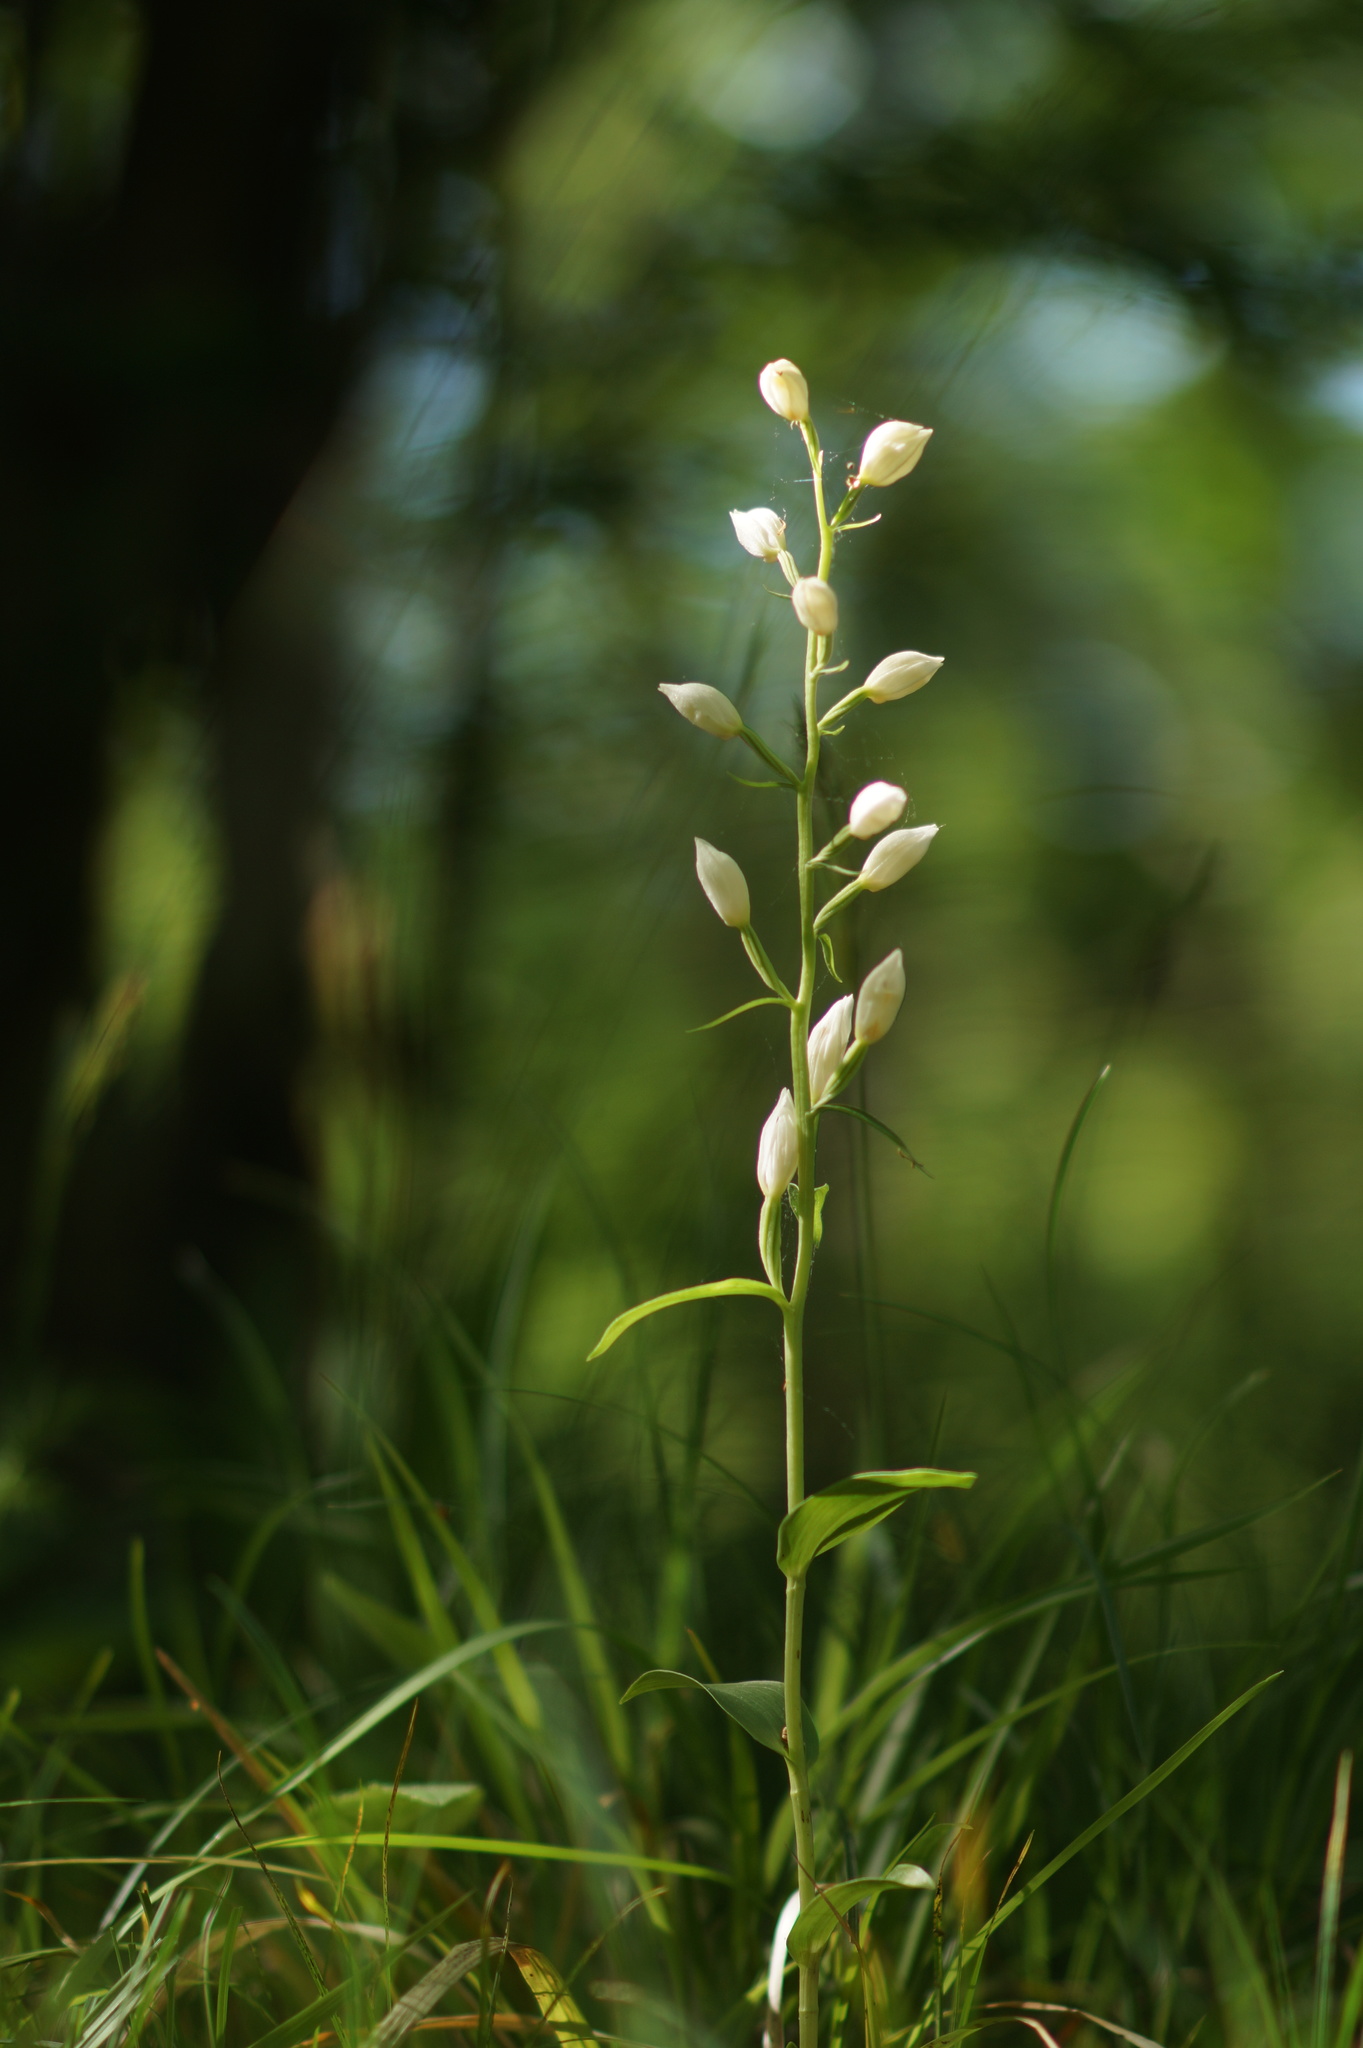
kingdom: Plantae
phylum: Tracheophyta
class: Liliopsida
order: Asparagales
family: Orchidaceae
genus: Cephalanthera
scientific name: Cephalanthera damasonium
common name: White helleborine
